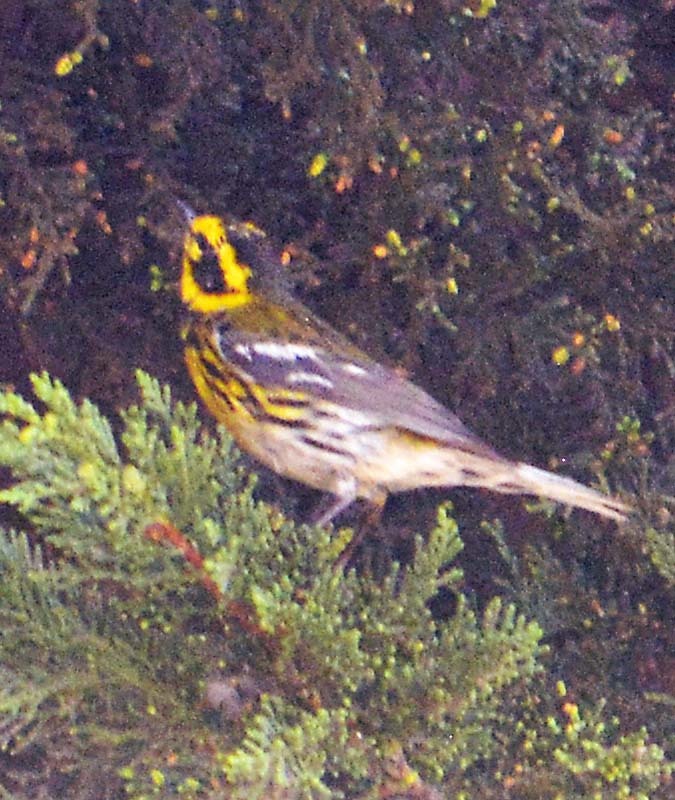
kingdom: Animalia
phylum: Chordata
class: Aves
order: Passeriformes
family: Parulidae
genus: Setophaga
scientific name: Setophaga townsendi
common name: Townsend's warbler
